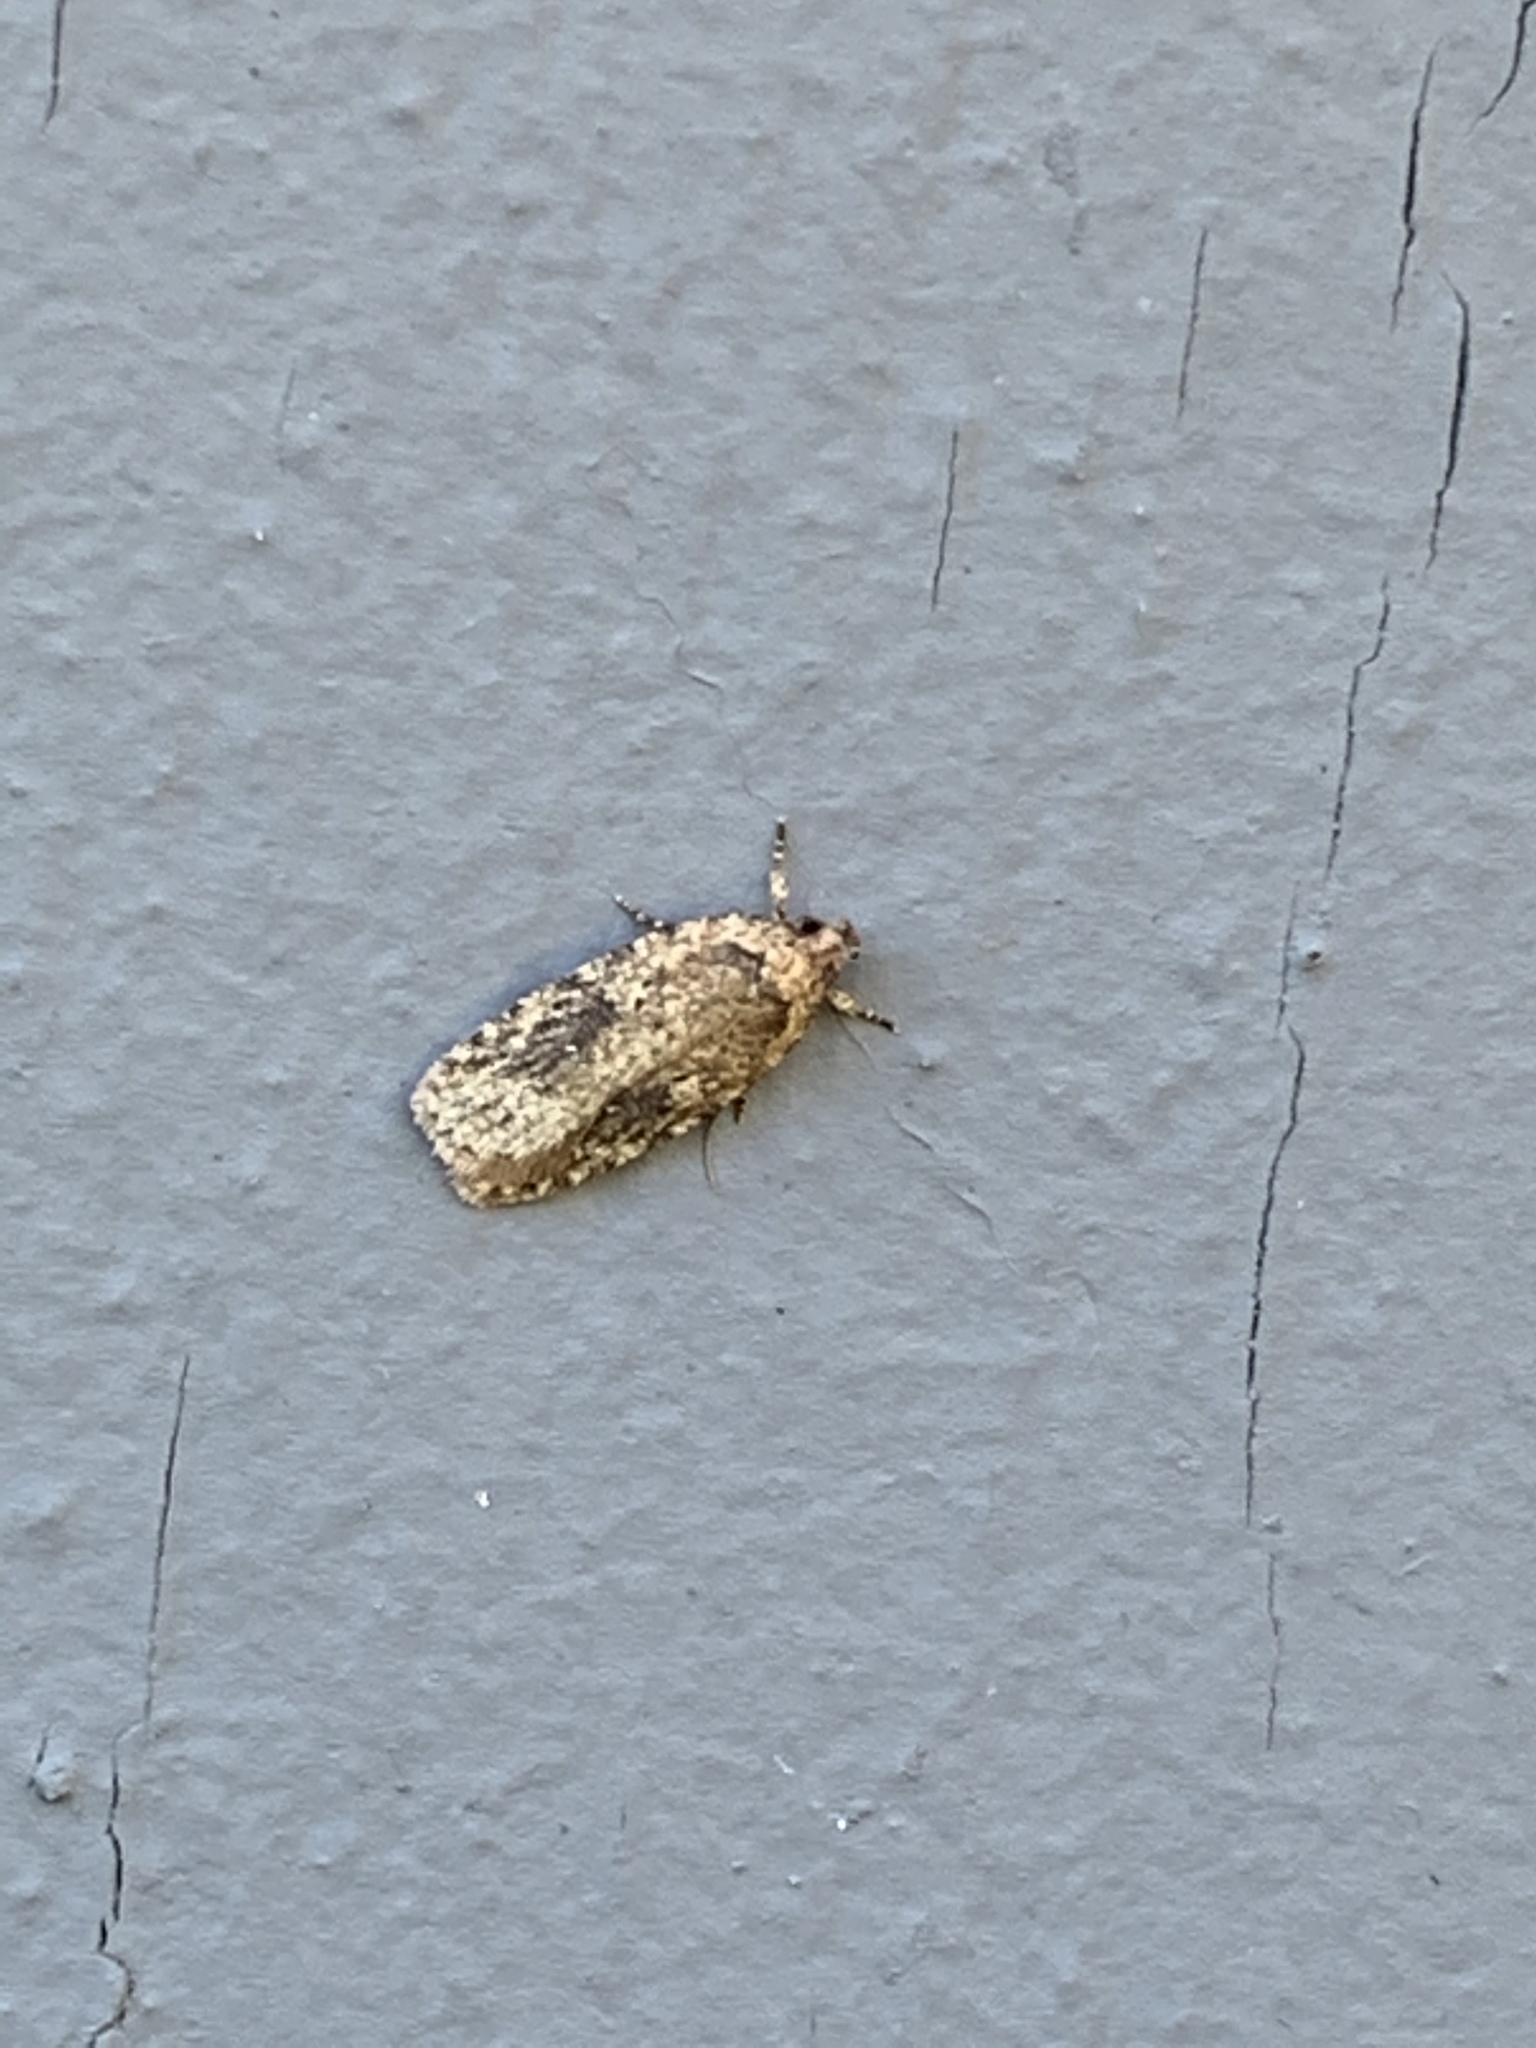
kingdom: Animalia
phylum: Arthropoda
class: Insecta
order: Lepidoptera
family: Depressariidae
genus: Agonopterix
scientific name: Agonopterix pulvipennella
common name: Goldenrod leafffolder
